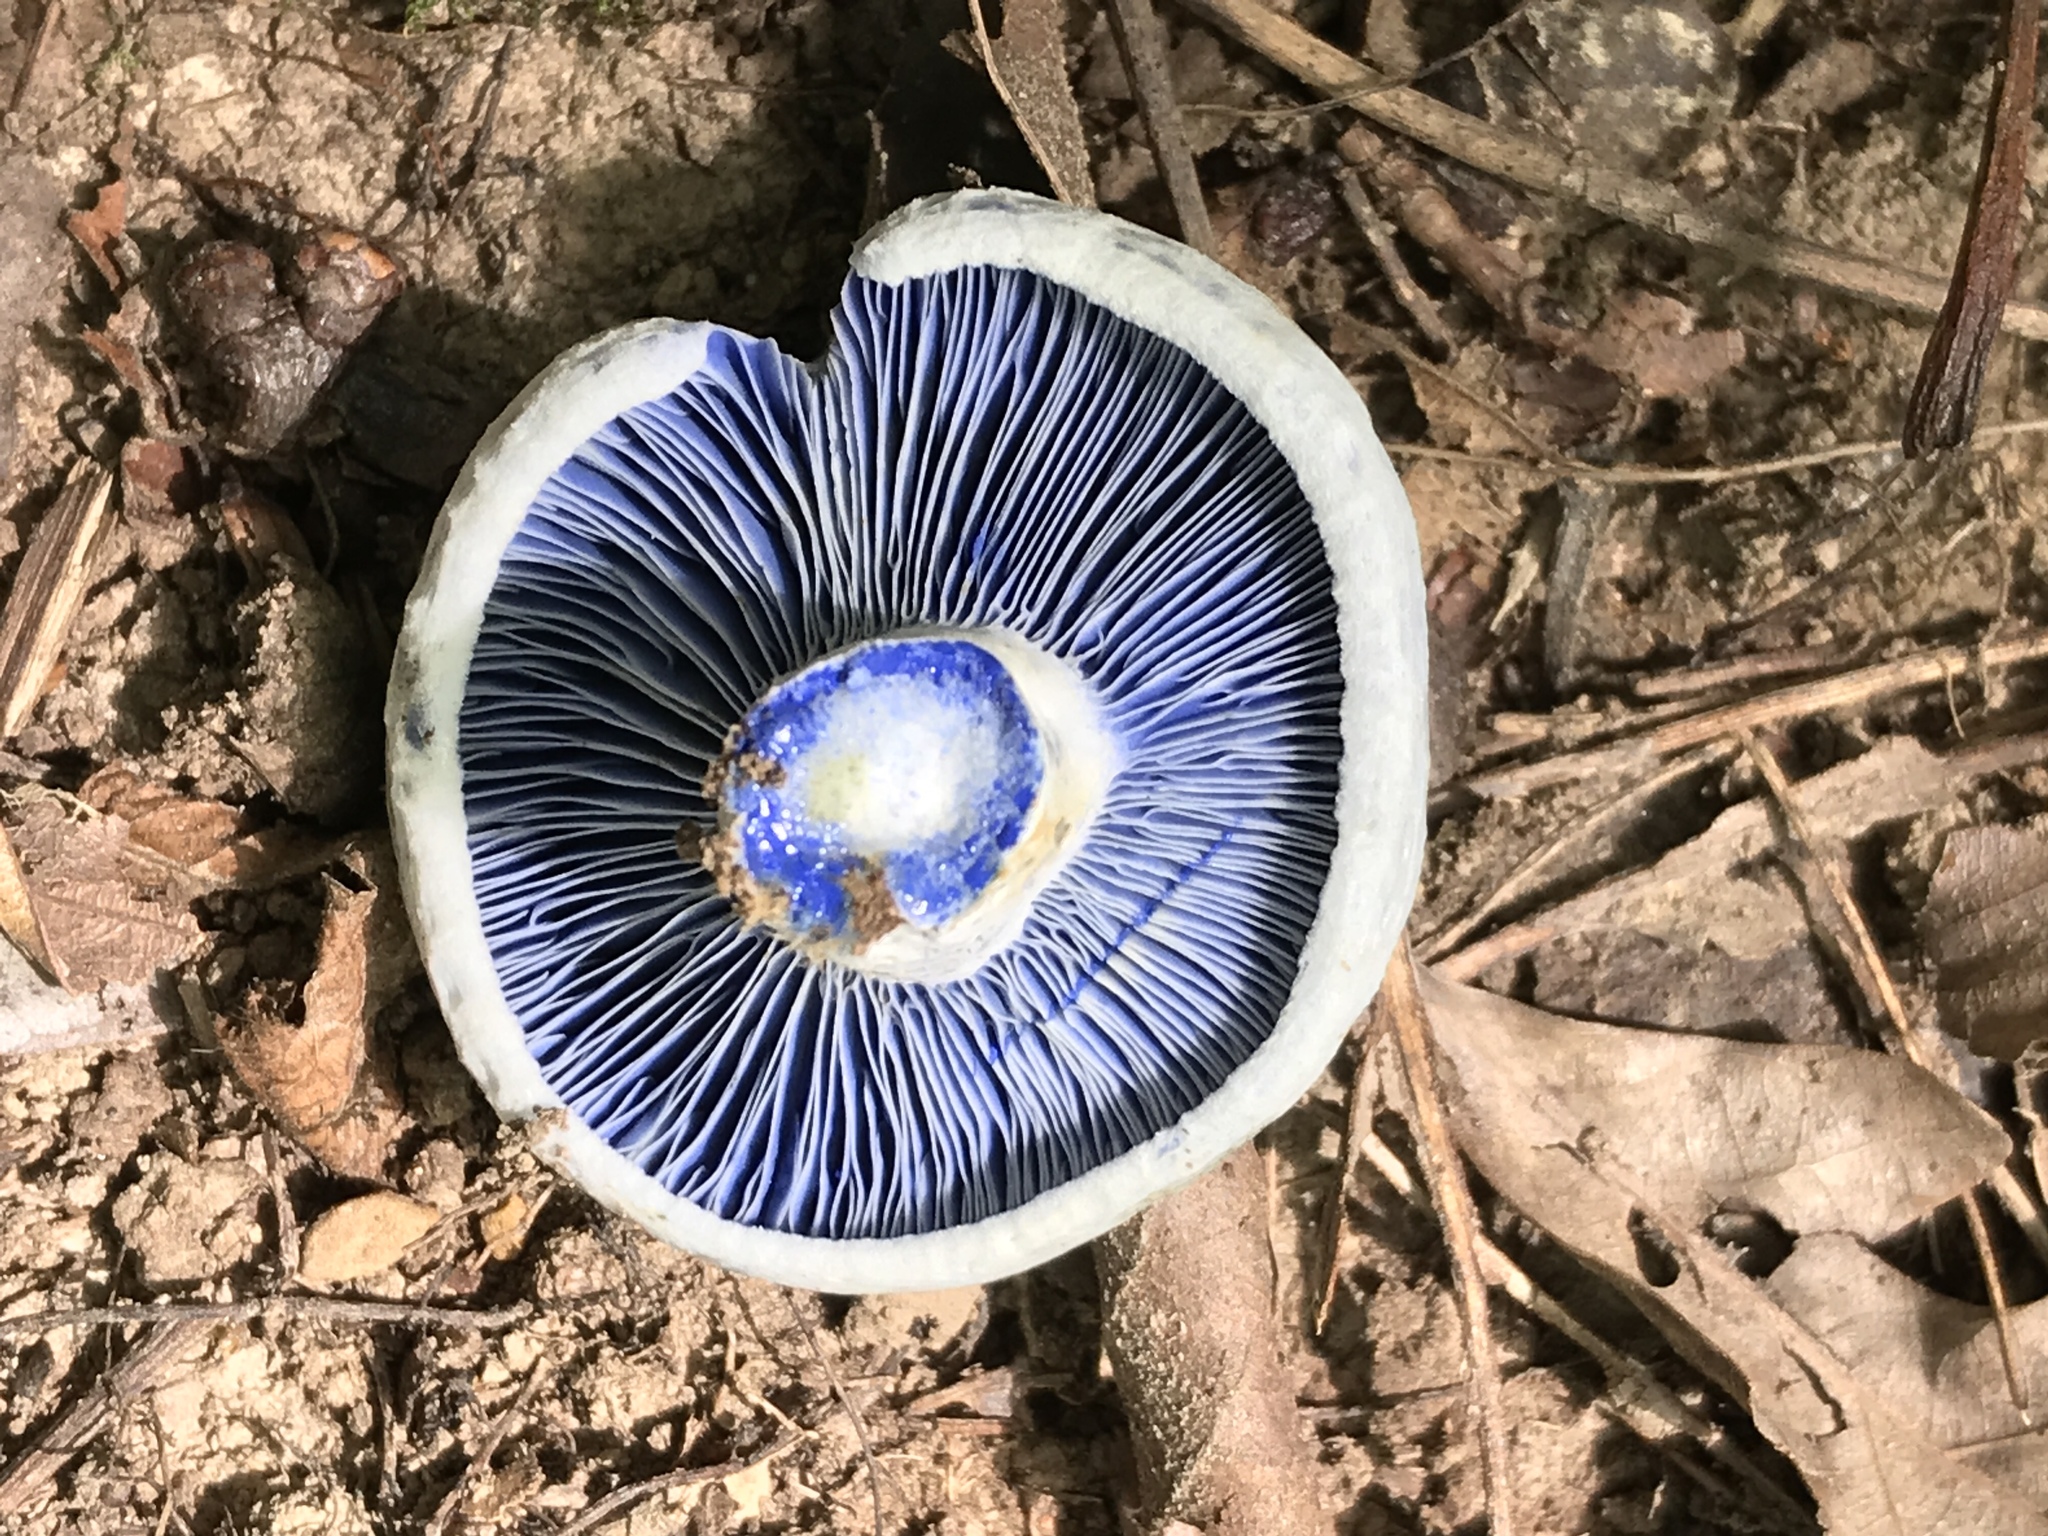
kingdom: Fungi
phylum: Basidiomycota
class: Agaricomycetes
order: Russulales
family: Russulaceae
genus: Lactarius
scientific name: Lactarius indigo
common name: Indigo milk cap
